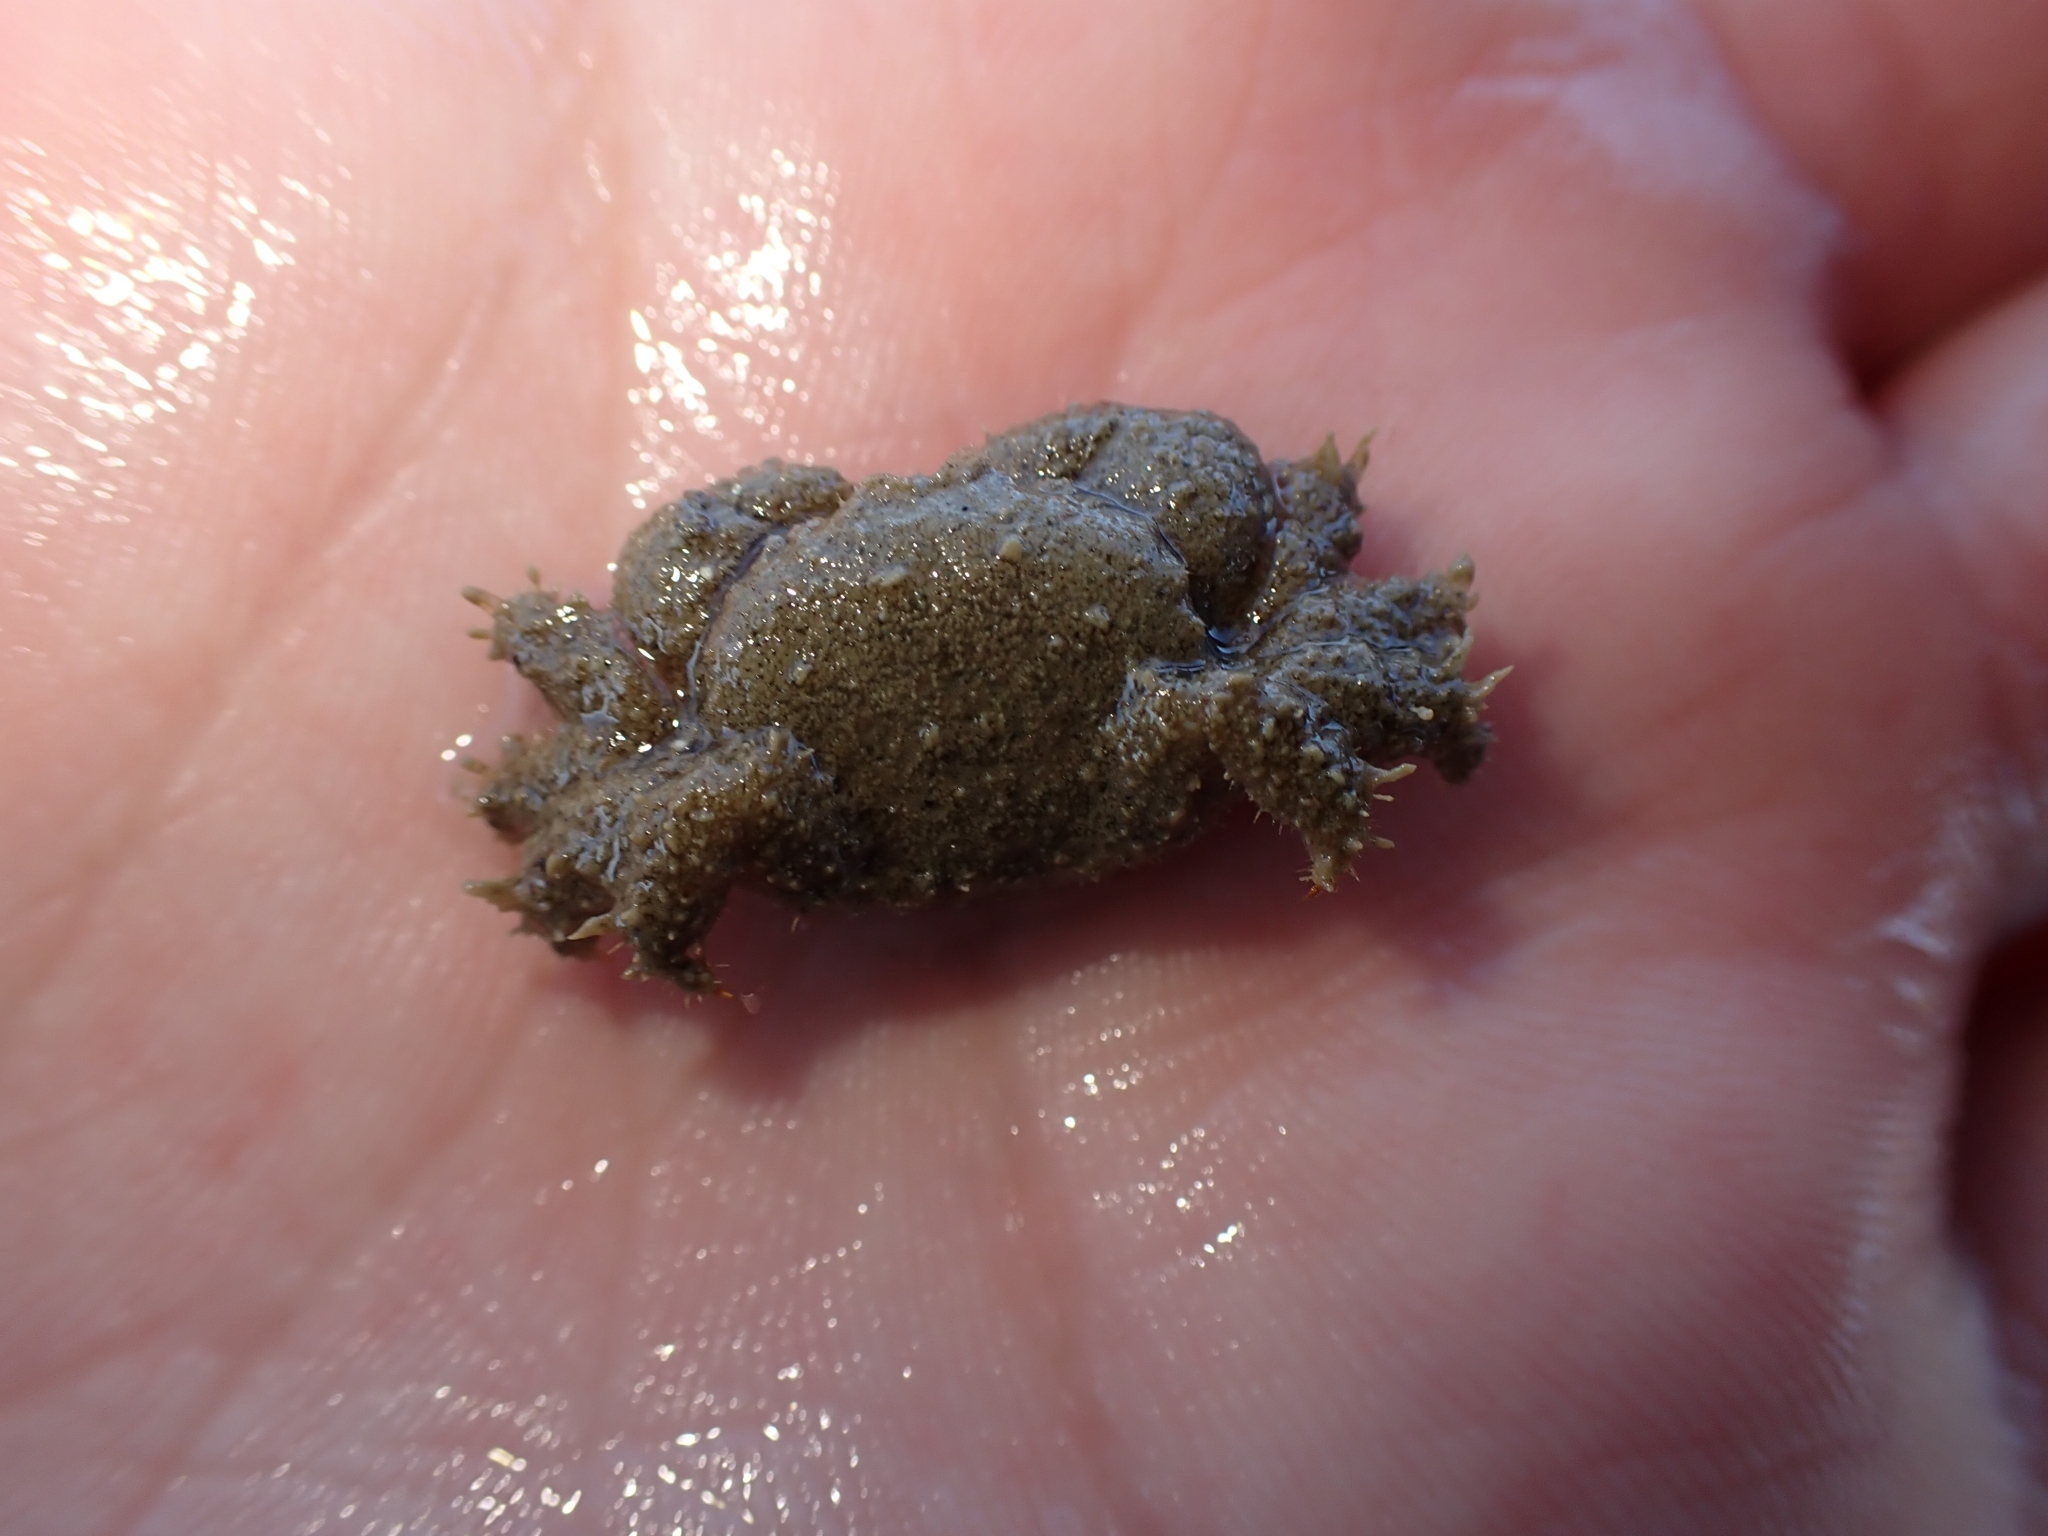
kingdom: Animalia
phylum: Arthropoda
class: Malacostraca
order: Decapoda
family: Pilumnidae
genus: Pilumnus
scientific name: Pilumnus lumpinus
